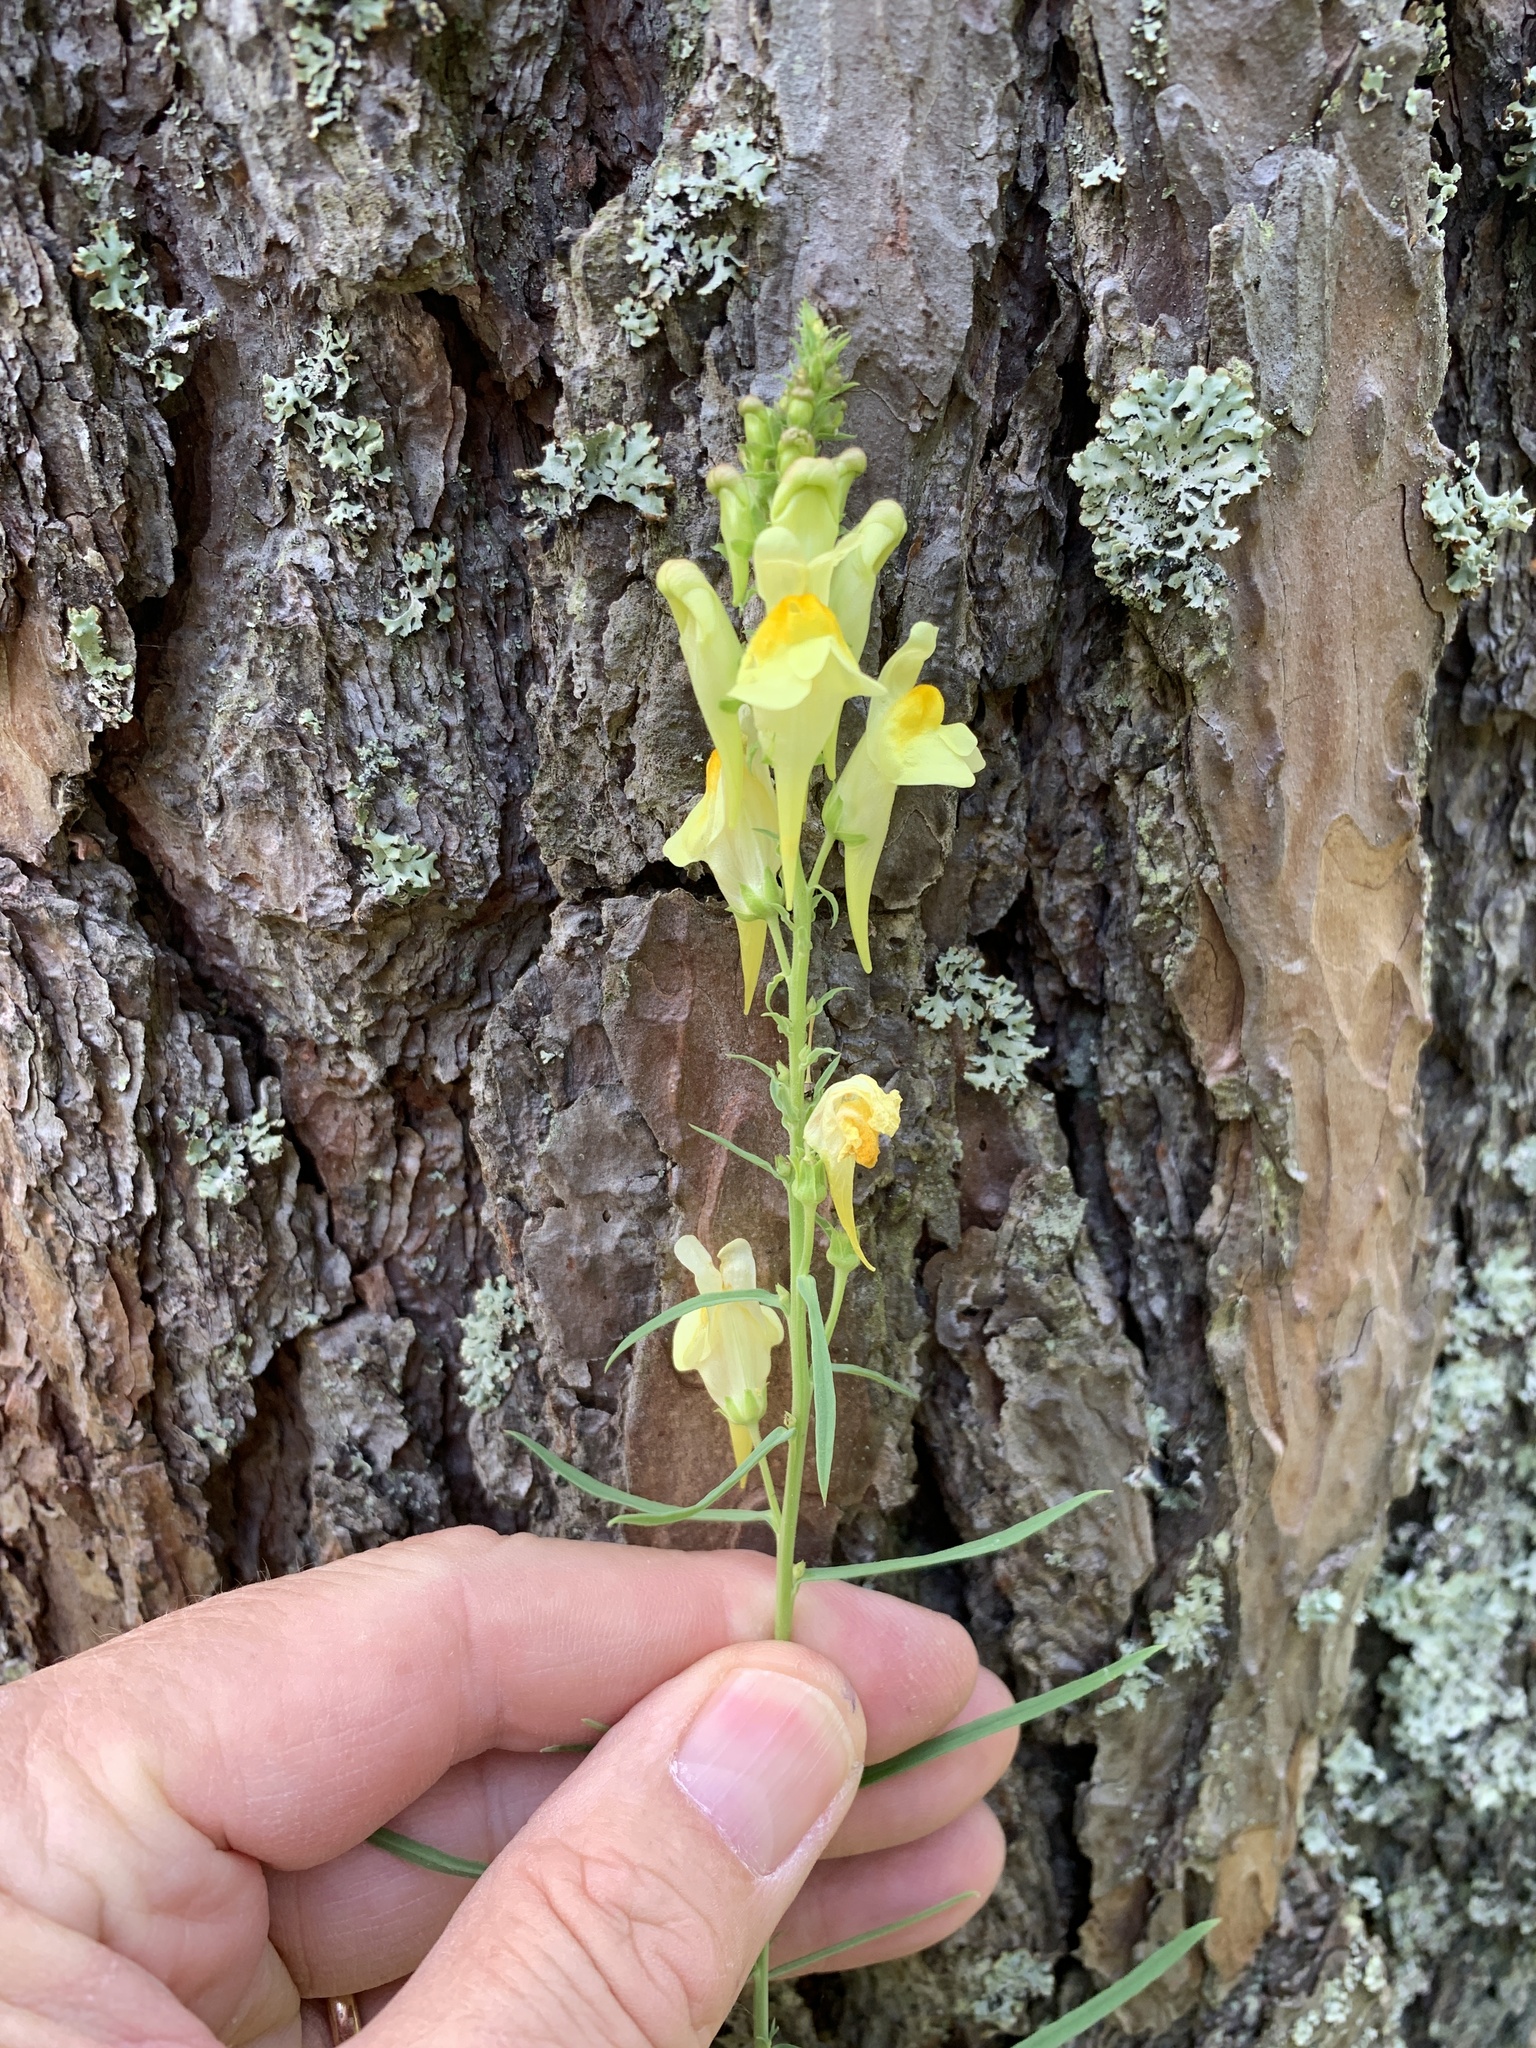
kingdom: Plantae
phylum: Tracheophyta
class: Magnoliopsida
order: Lamiales
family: Plantaginaceae
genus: Linaria
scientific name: Linaria vulgaris
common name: Butter and eggs
